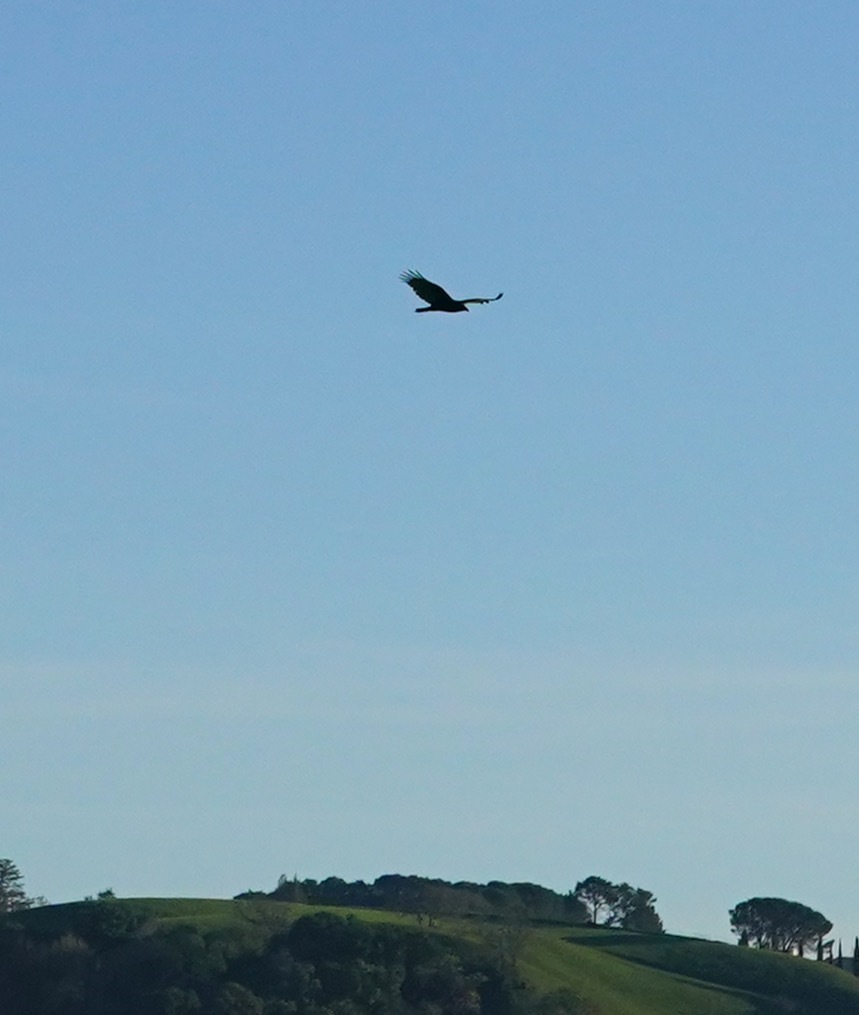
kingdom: Animalia
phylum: Chordata
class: Aves
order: Accipitriformes
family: Cathartidae
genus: Cathartes
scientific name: Cathartes aura
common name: Turkey vulture
